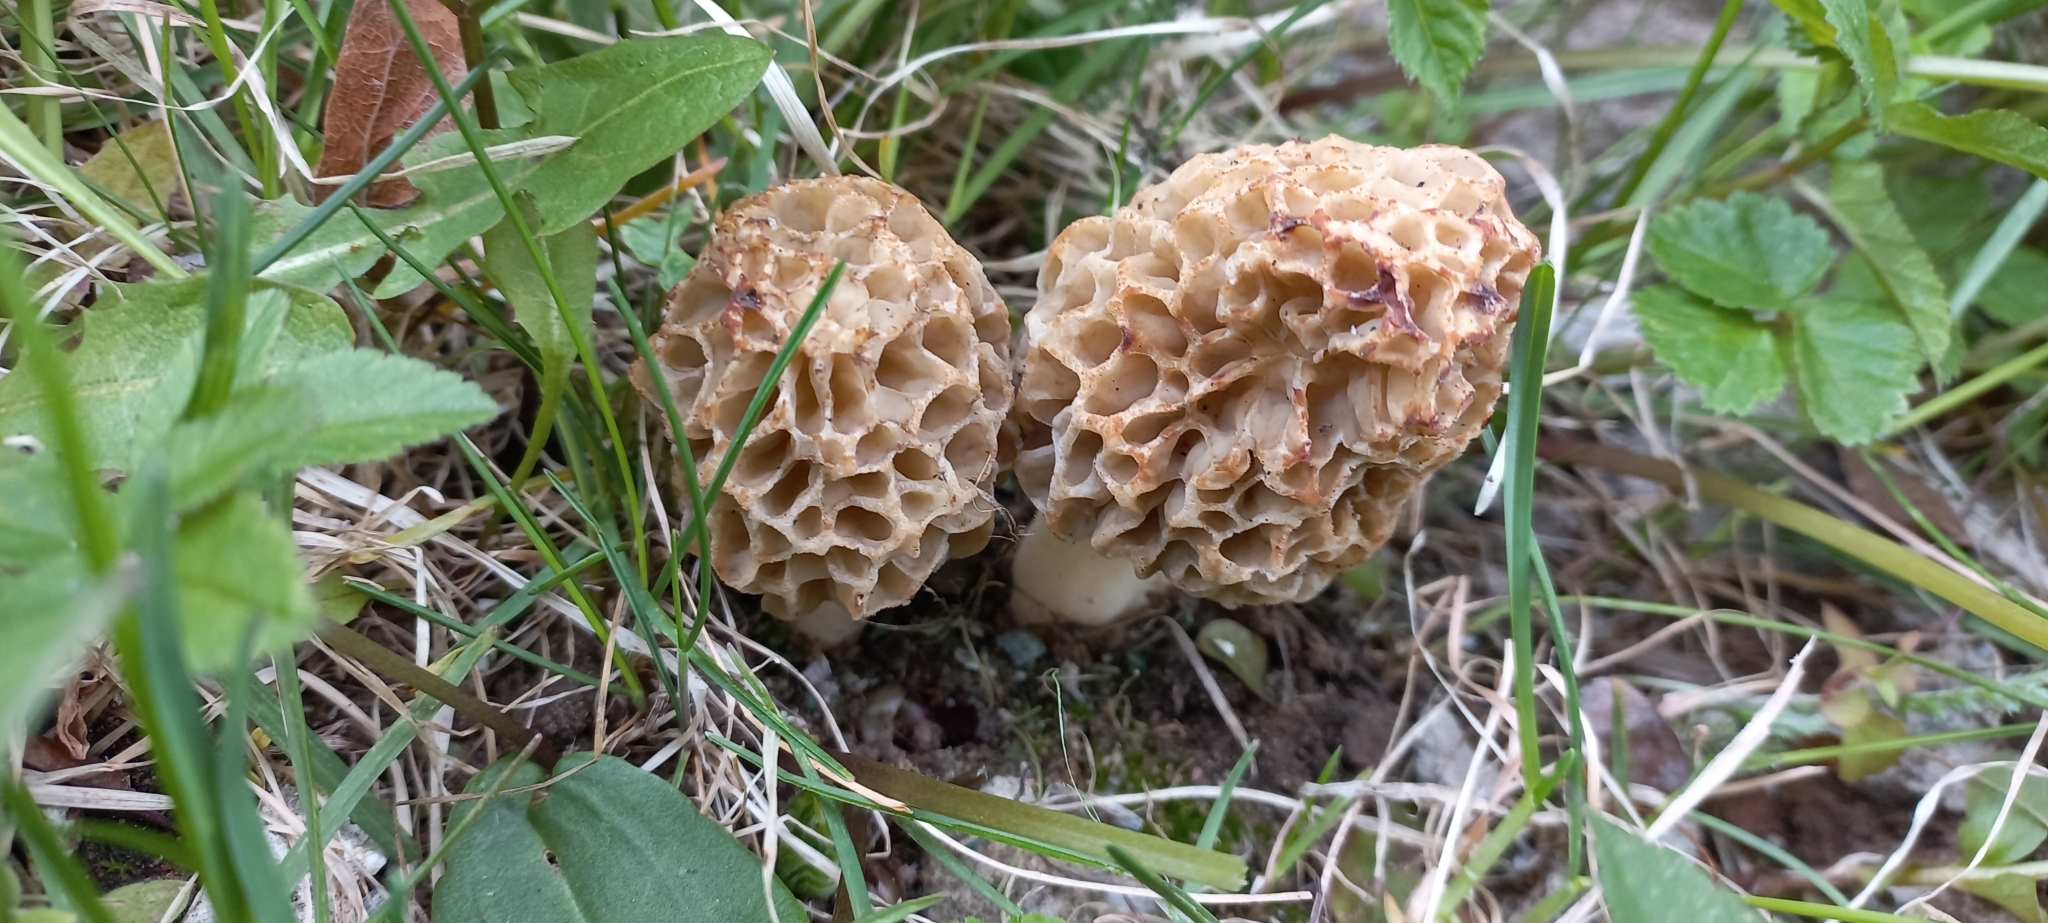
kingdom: Fungi
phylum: Ascomycota
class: Pezizomycetes
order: Pezizales
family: Morchellaceae
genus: Morchella
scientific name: Morchella esculenta
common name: Morel
